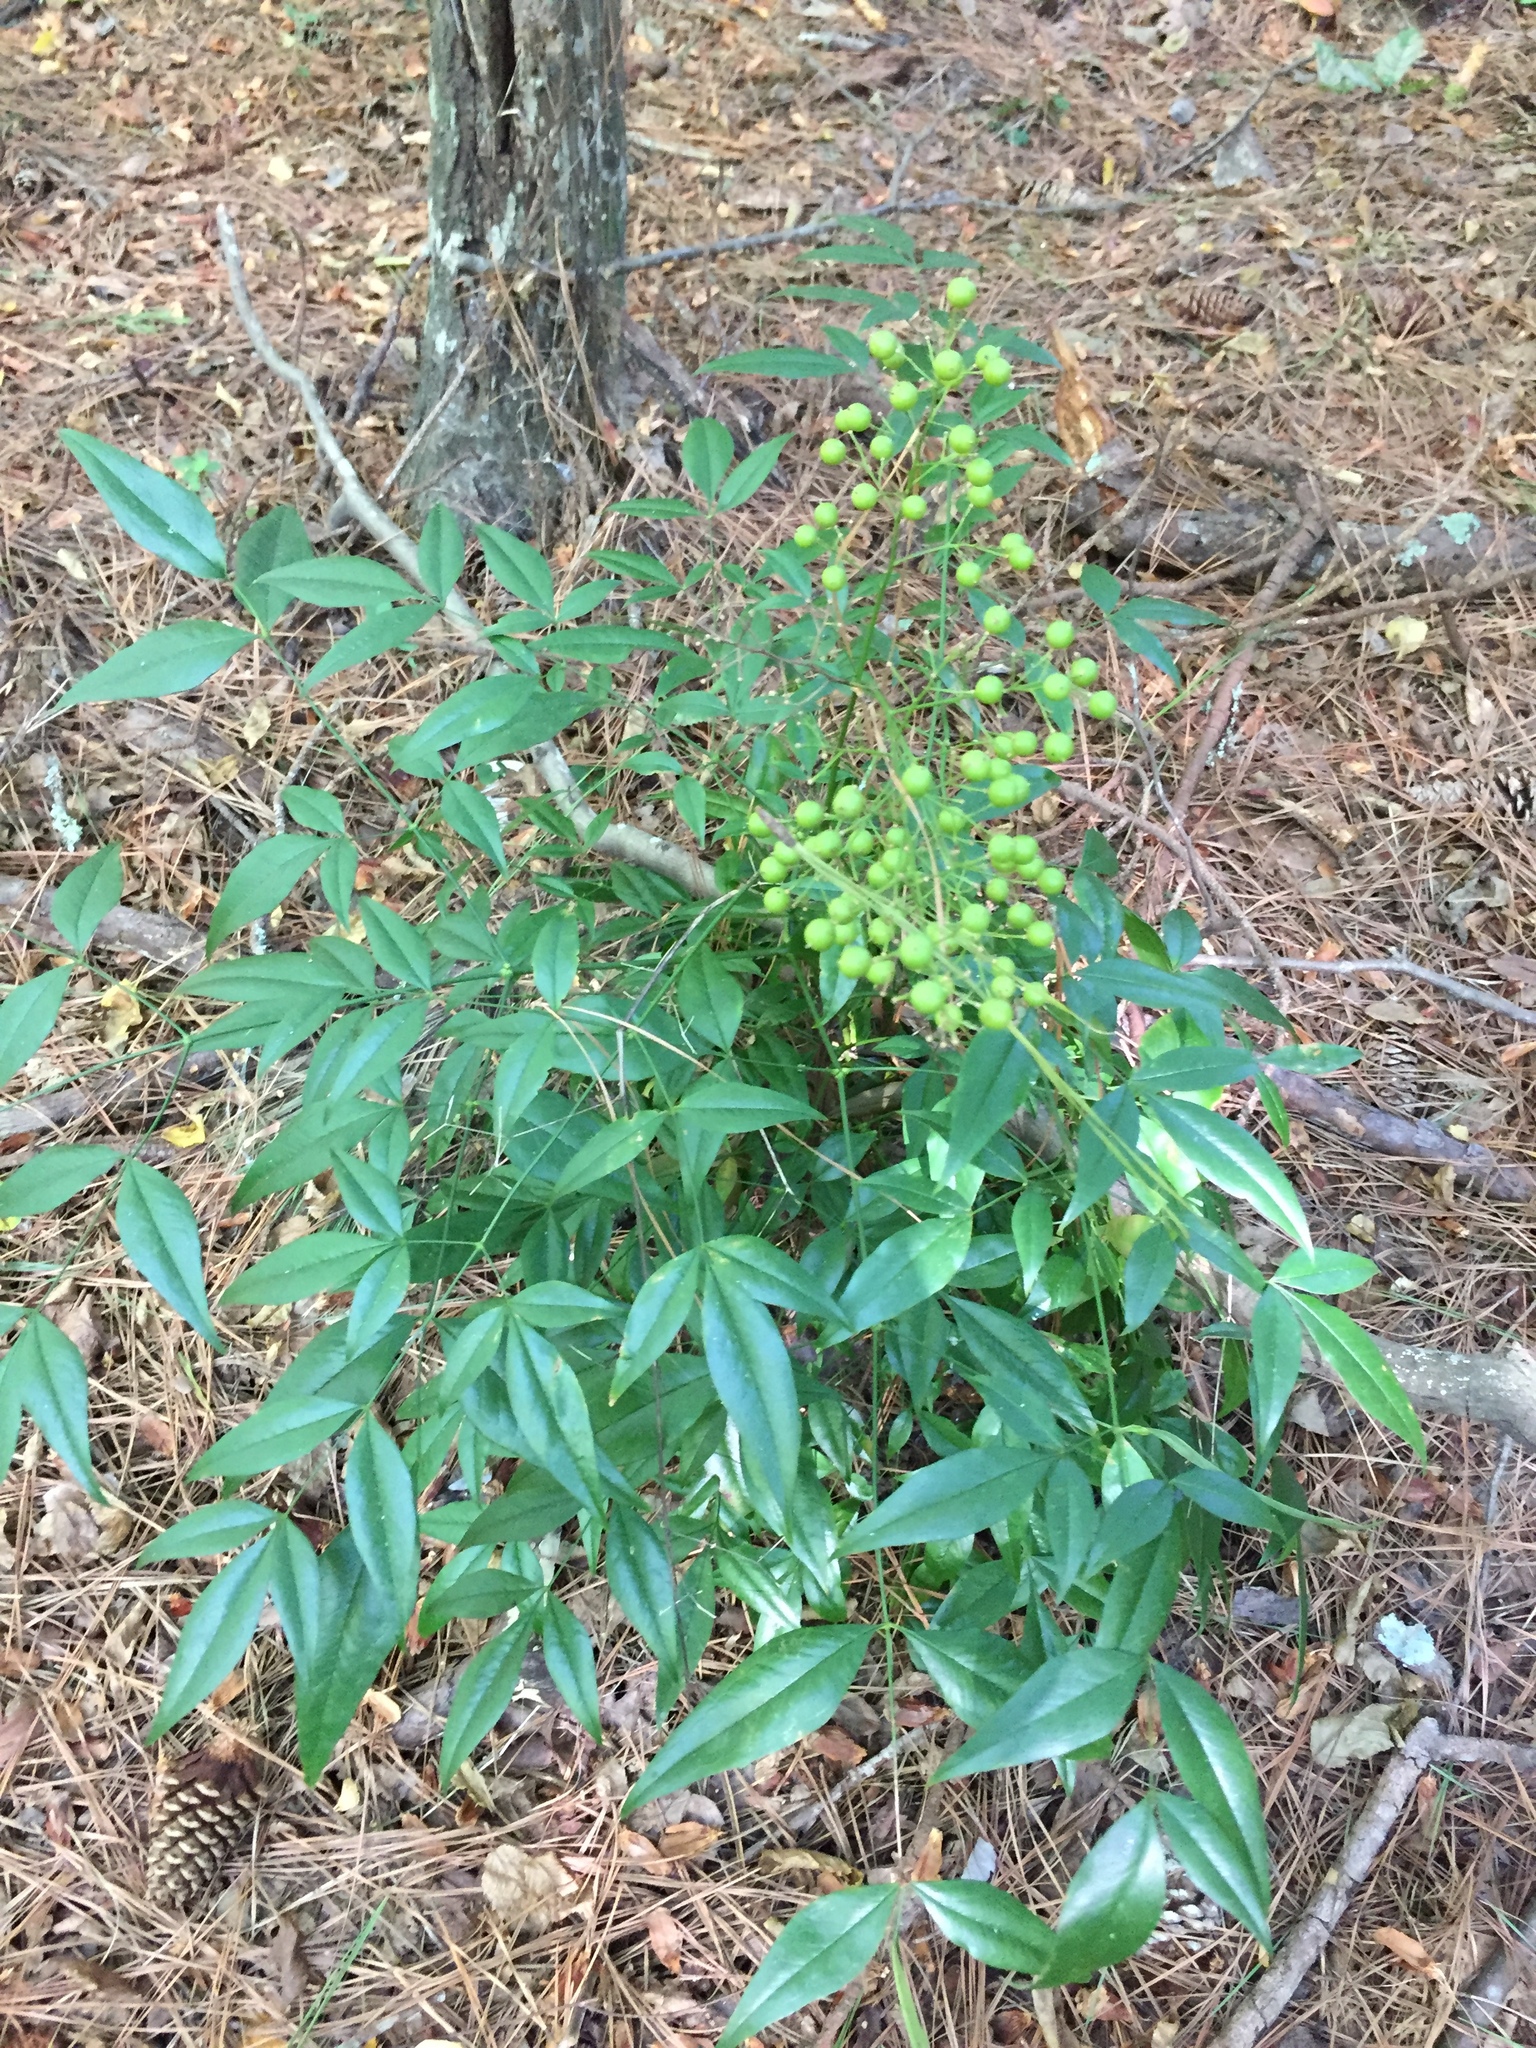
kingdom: Plantae
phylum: Tracheophyta
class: Magnoliopsida
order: Ranunculales
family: Berberidaceae
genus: Nandina
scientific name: Nandina domestica
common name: Sacred bamboo
